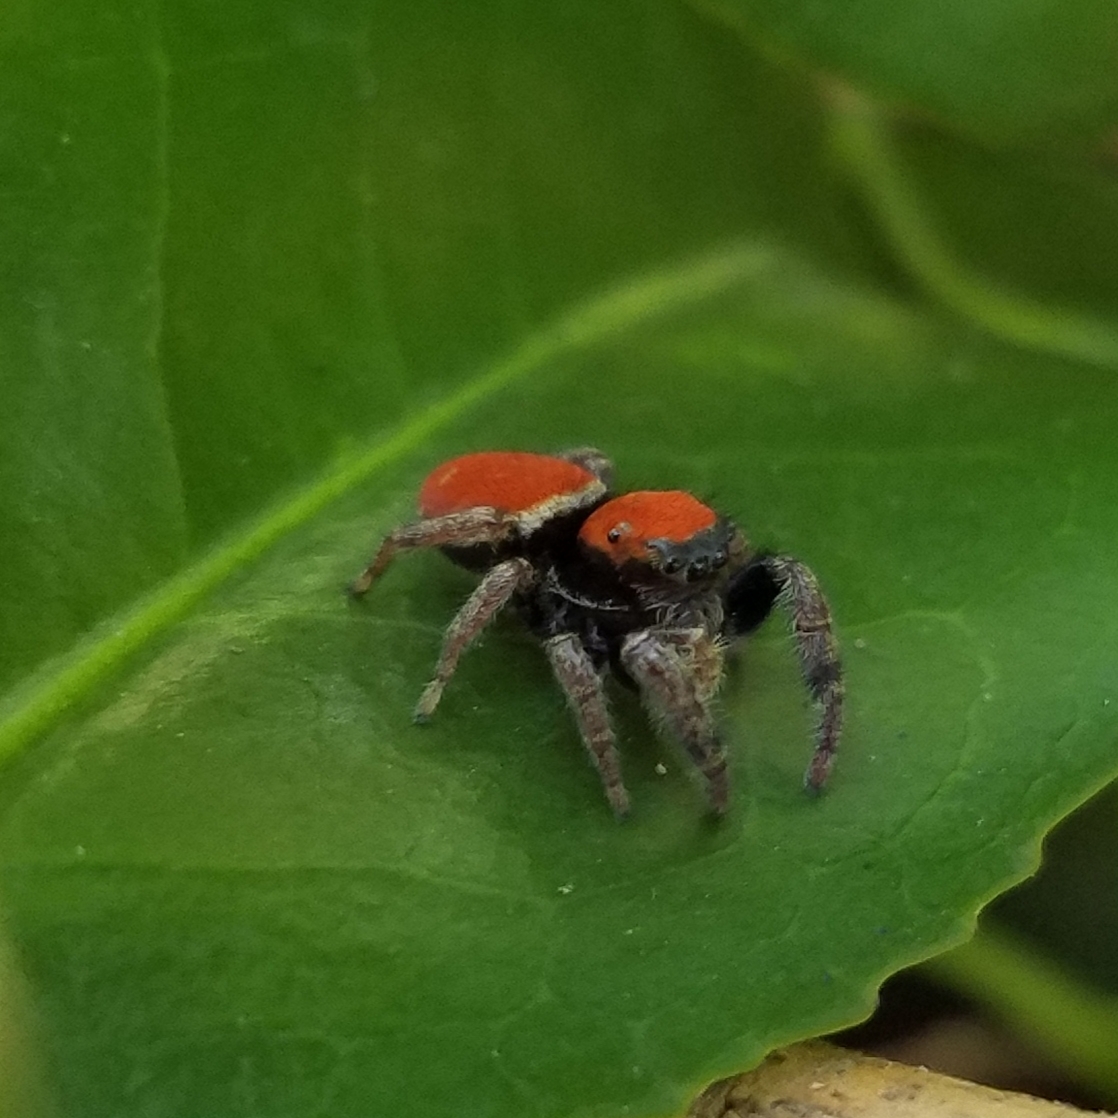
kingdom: Animalia
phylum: Arthropoda
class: Arachnida
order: Araneae
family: Salticidae
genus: Phidippus
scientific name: Phidippus whitmani
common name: Whitman's jumping spider
